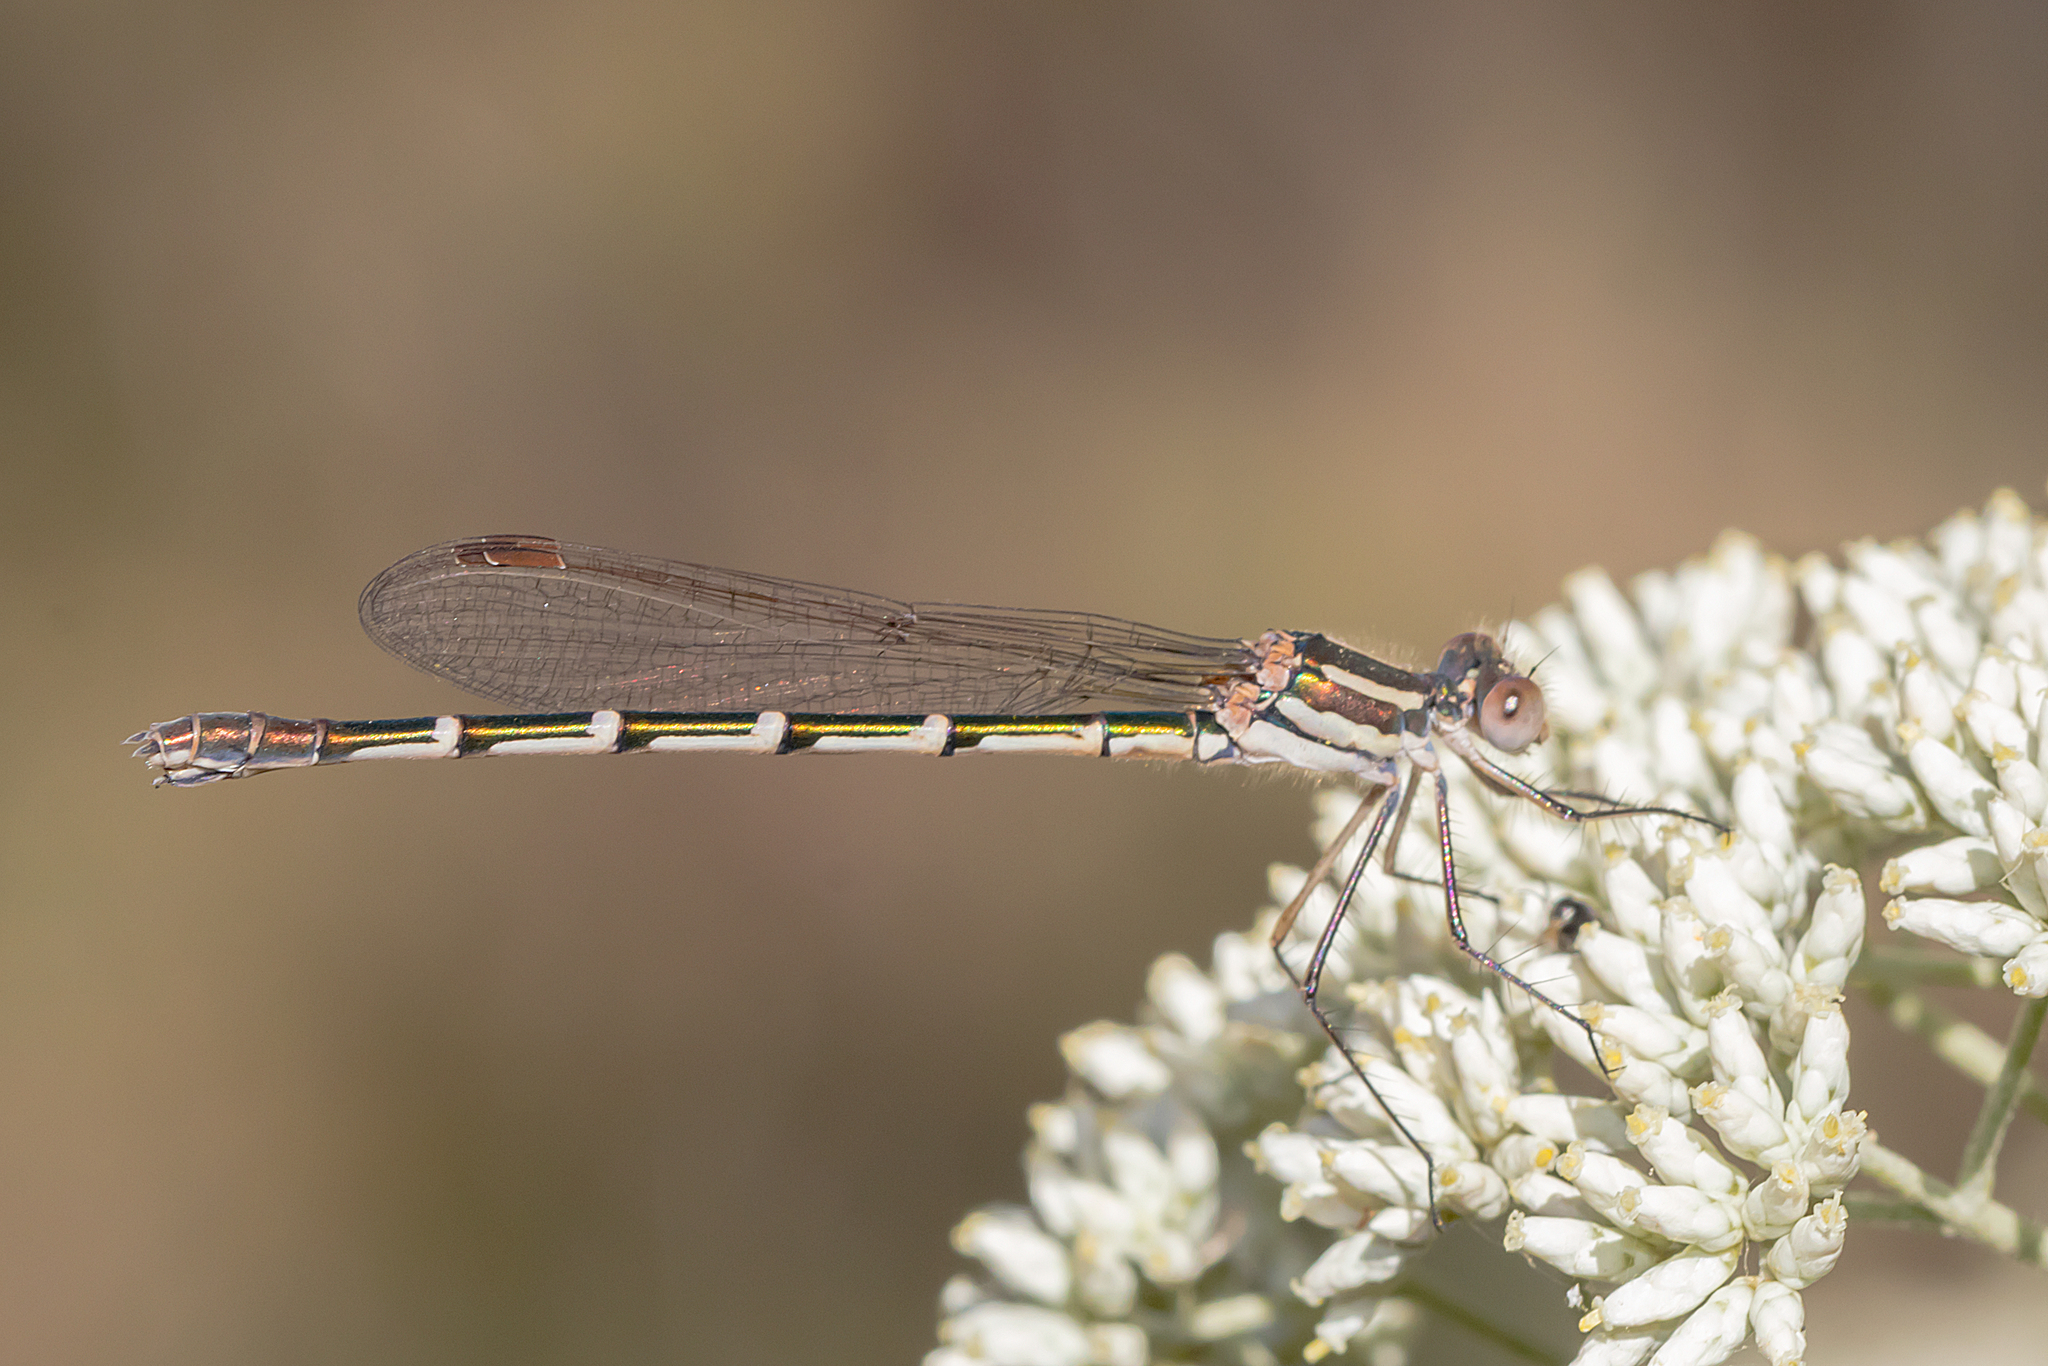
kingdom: Animalia
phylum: Arthropoda
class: Insecta
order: Odonata
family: Lestidae
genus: Austrolestes
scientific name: Austrolestes annulosus
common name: Blue ringtail
